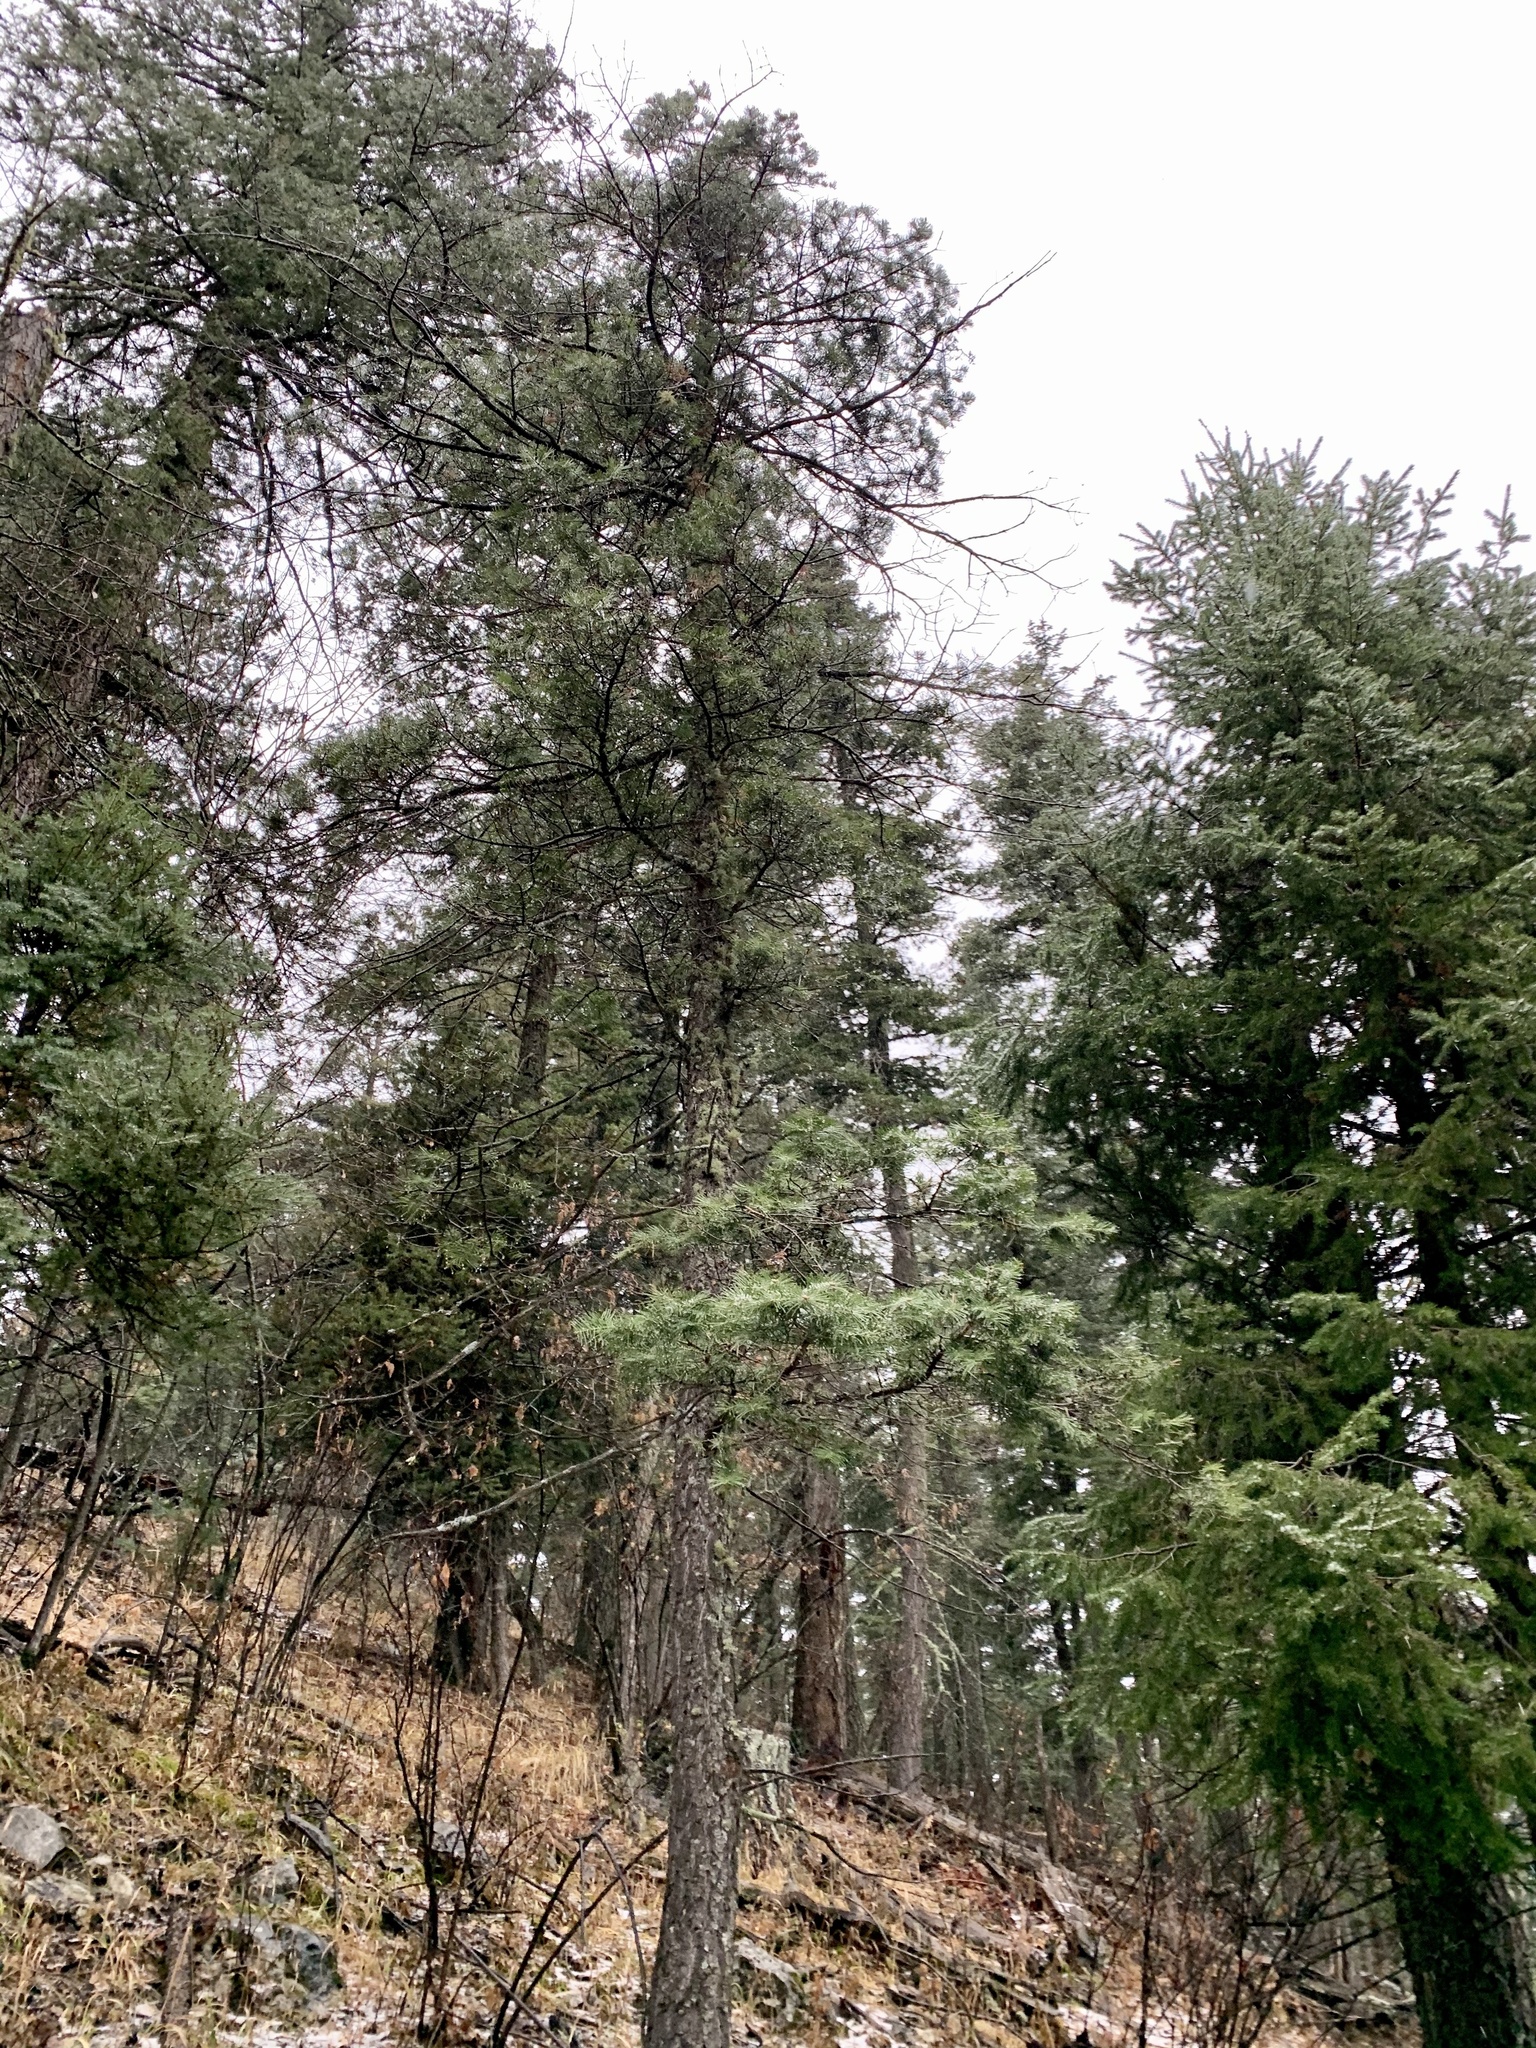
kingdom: Plantae
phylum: Tracheophyta
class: Pinopsida
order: Pinales
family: Pinaceae
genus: Abies
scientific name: Abies concolor
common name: Colorado fir
